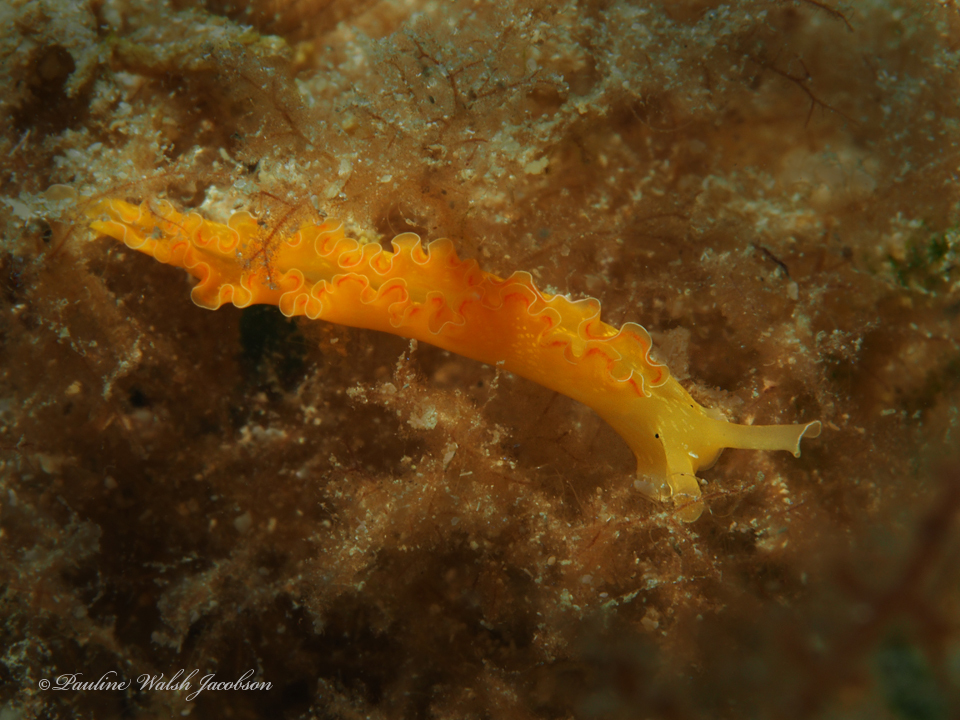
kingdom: Animalia
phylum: Mollusca
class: Gastropoda
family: Plakobranchidae
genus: Elysia
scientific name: Elysia crispata
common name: Lettuce slug
